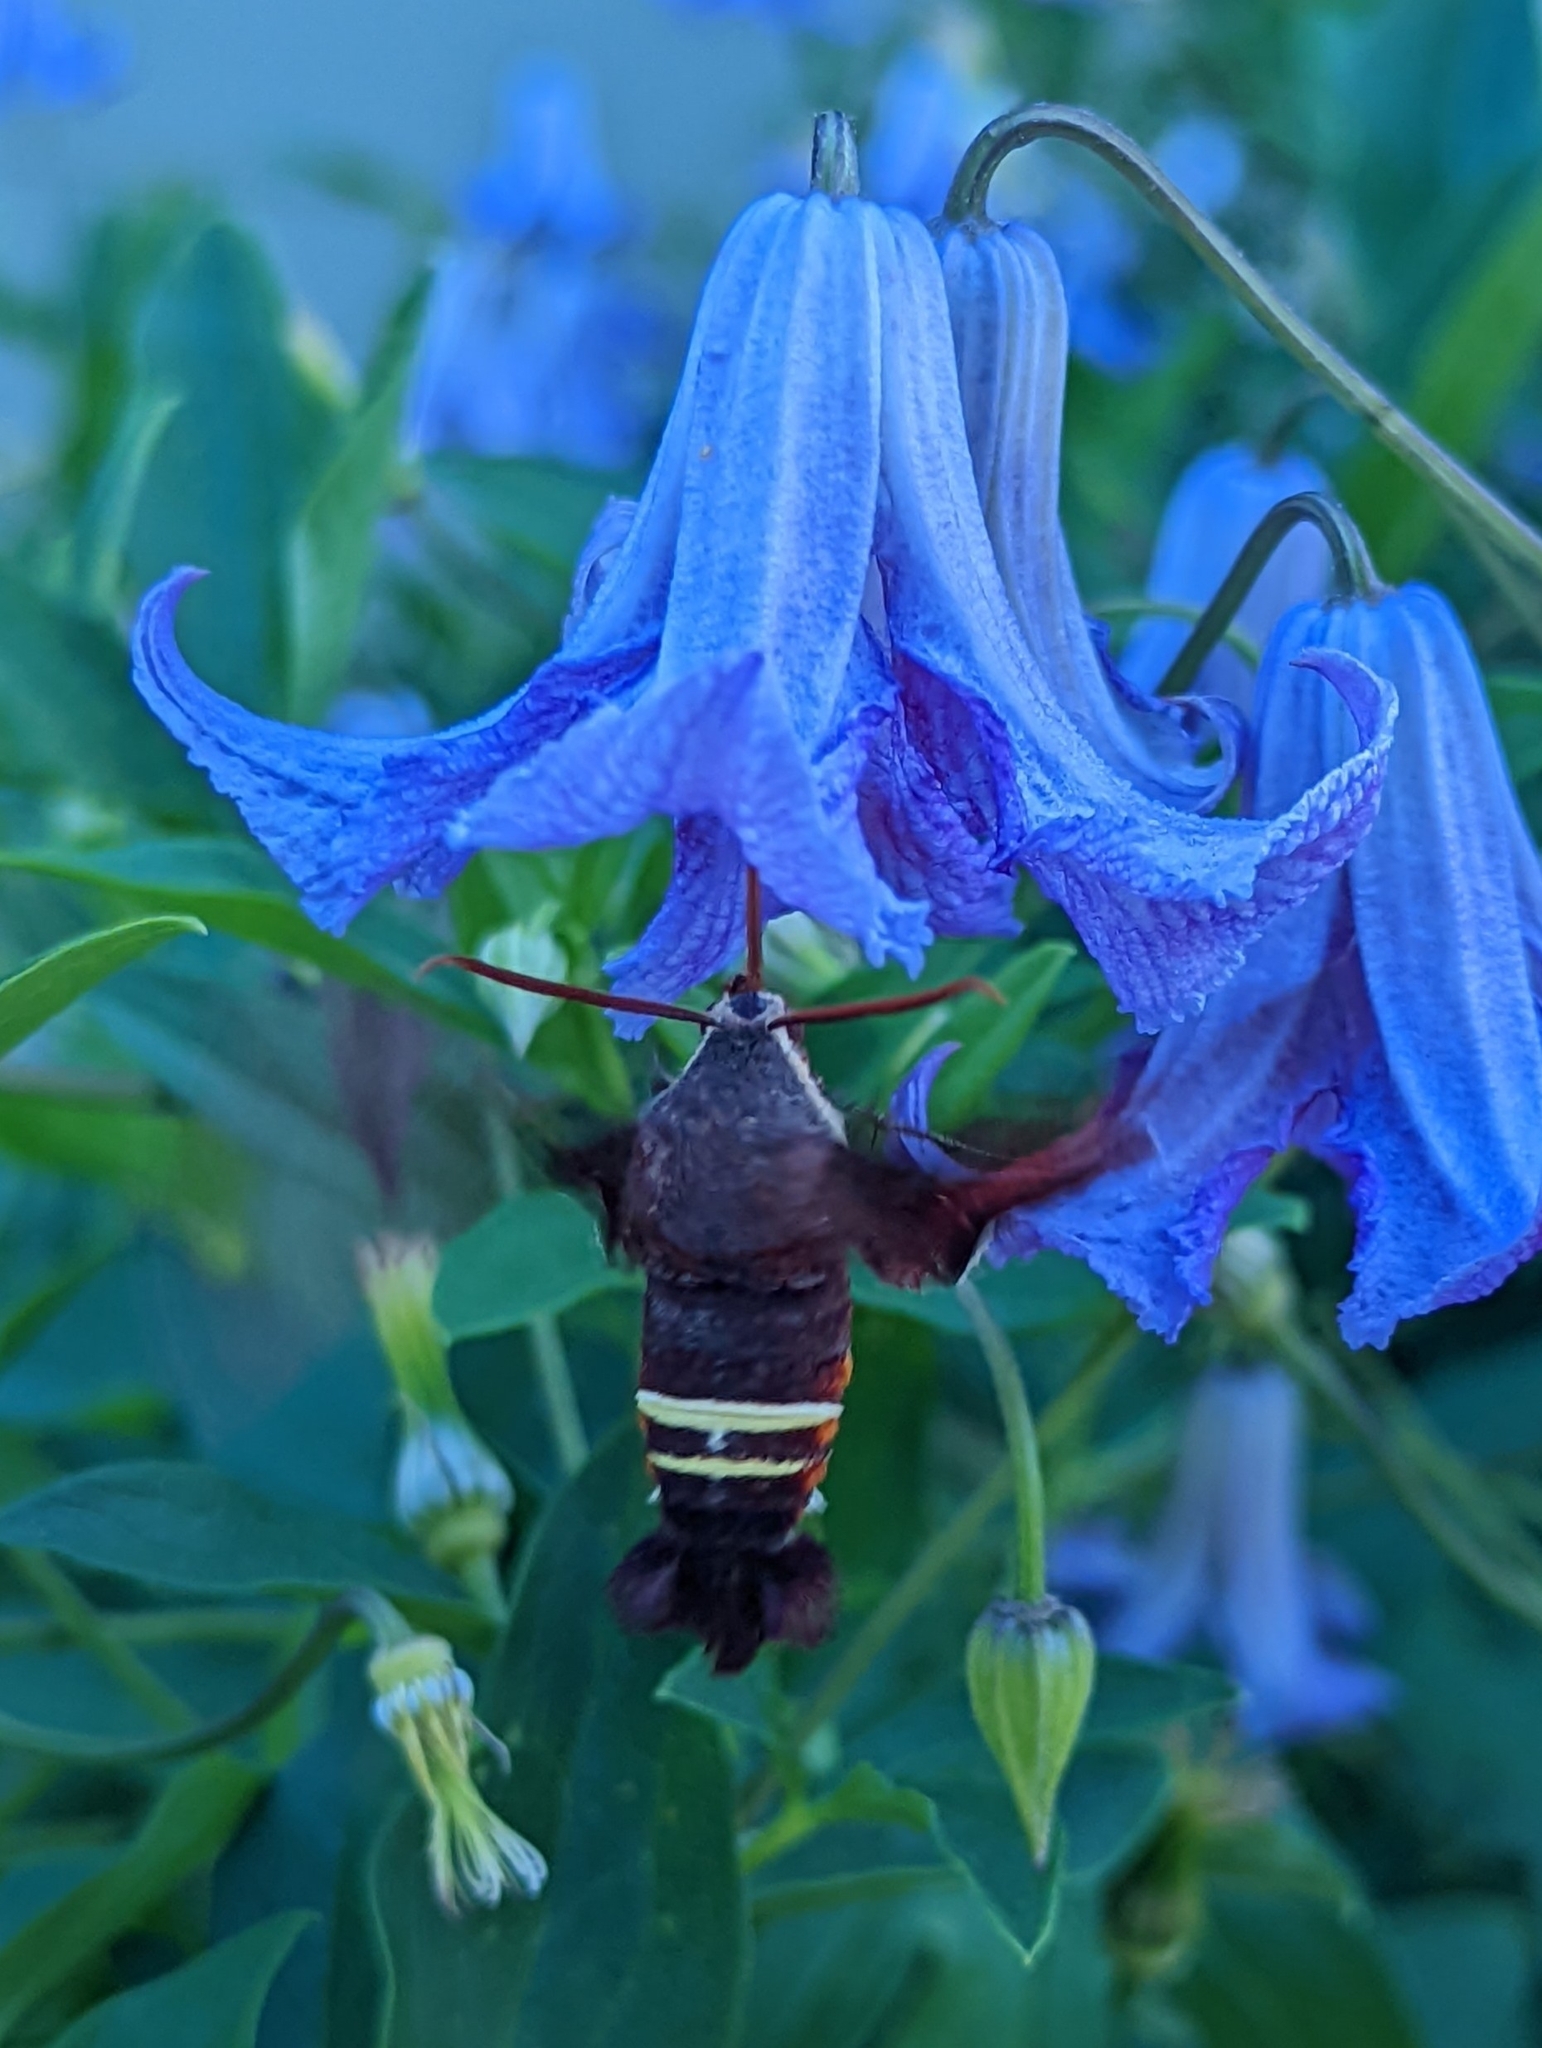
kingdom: Animalia
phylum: Arthropoda
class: Insecta
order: Lepidoptera
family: Sphingidae
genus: Amphion
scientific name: Amphion floridensis
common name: Nessus sphinx
